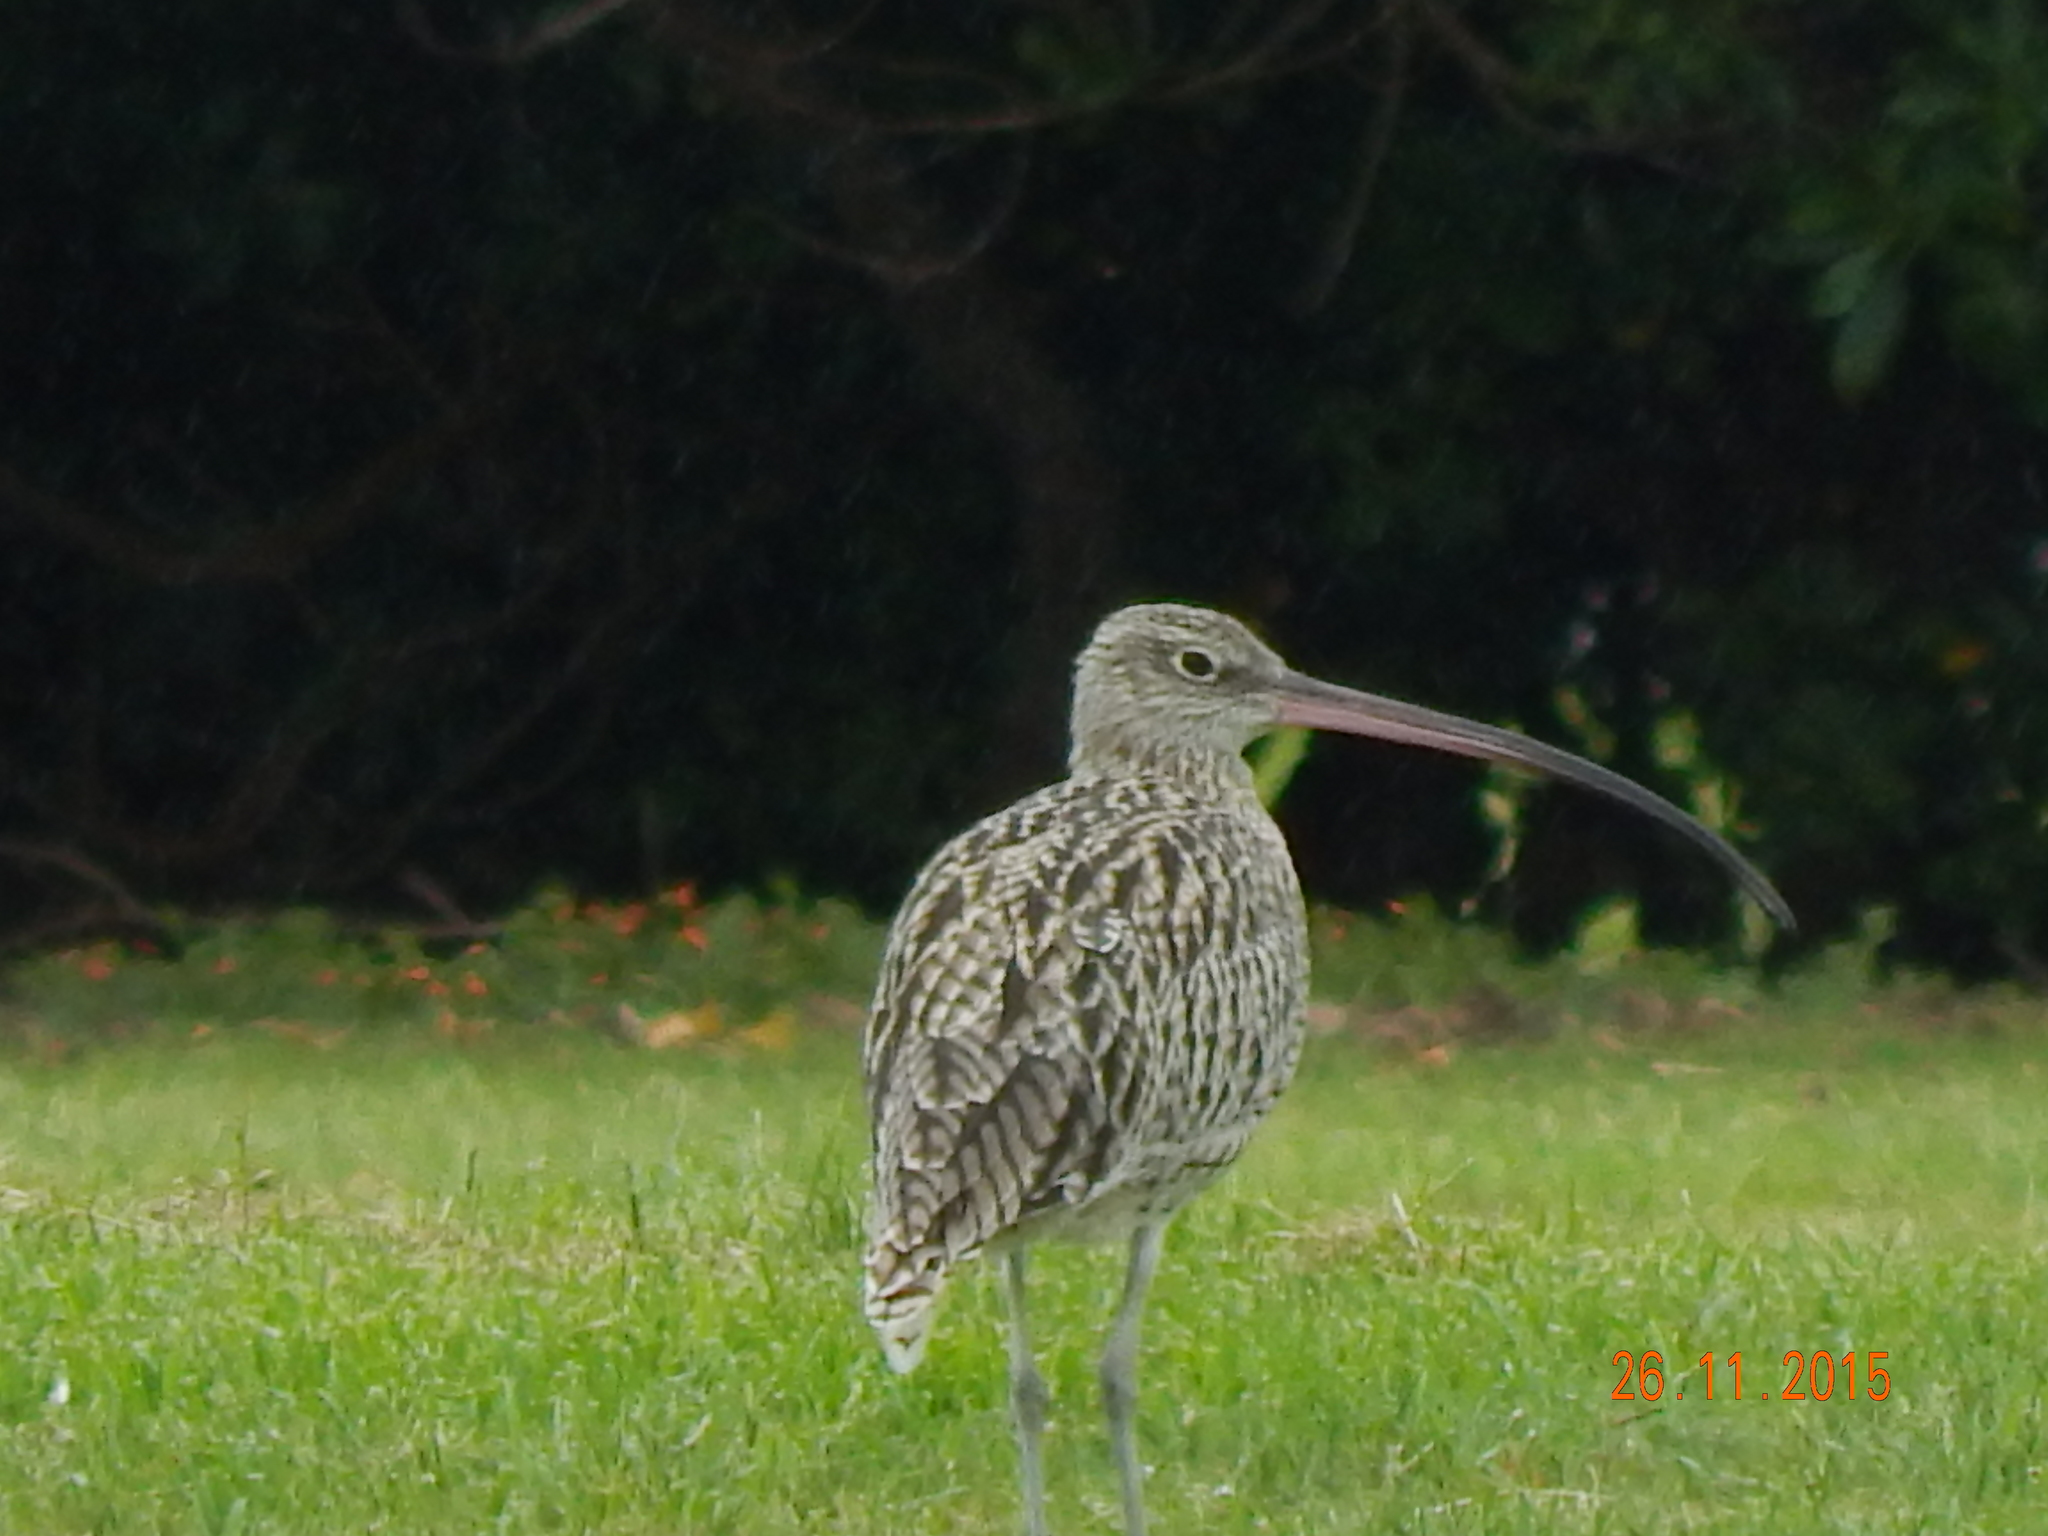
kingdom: Animalia
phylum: Chordata
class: Aves
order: Charadriiformes
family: Scolopacidae
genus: Numenius
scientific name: Numenius madagascariensis
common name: Far eastern curlew
